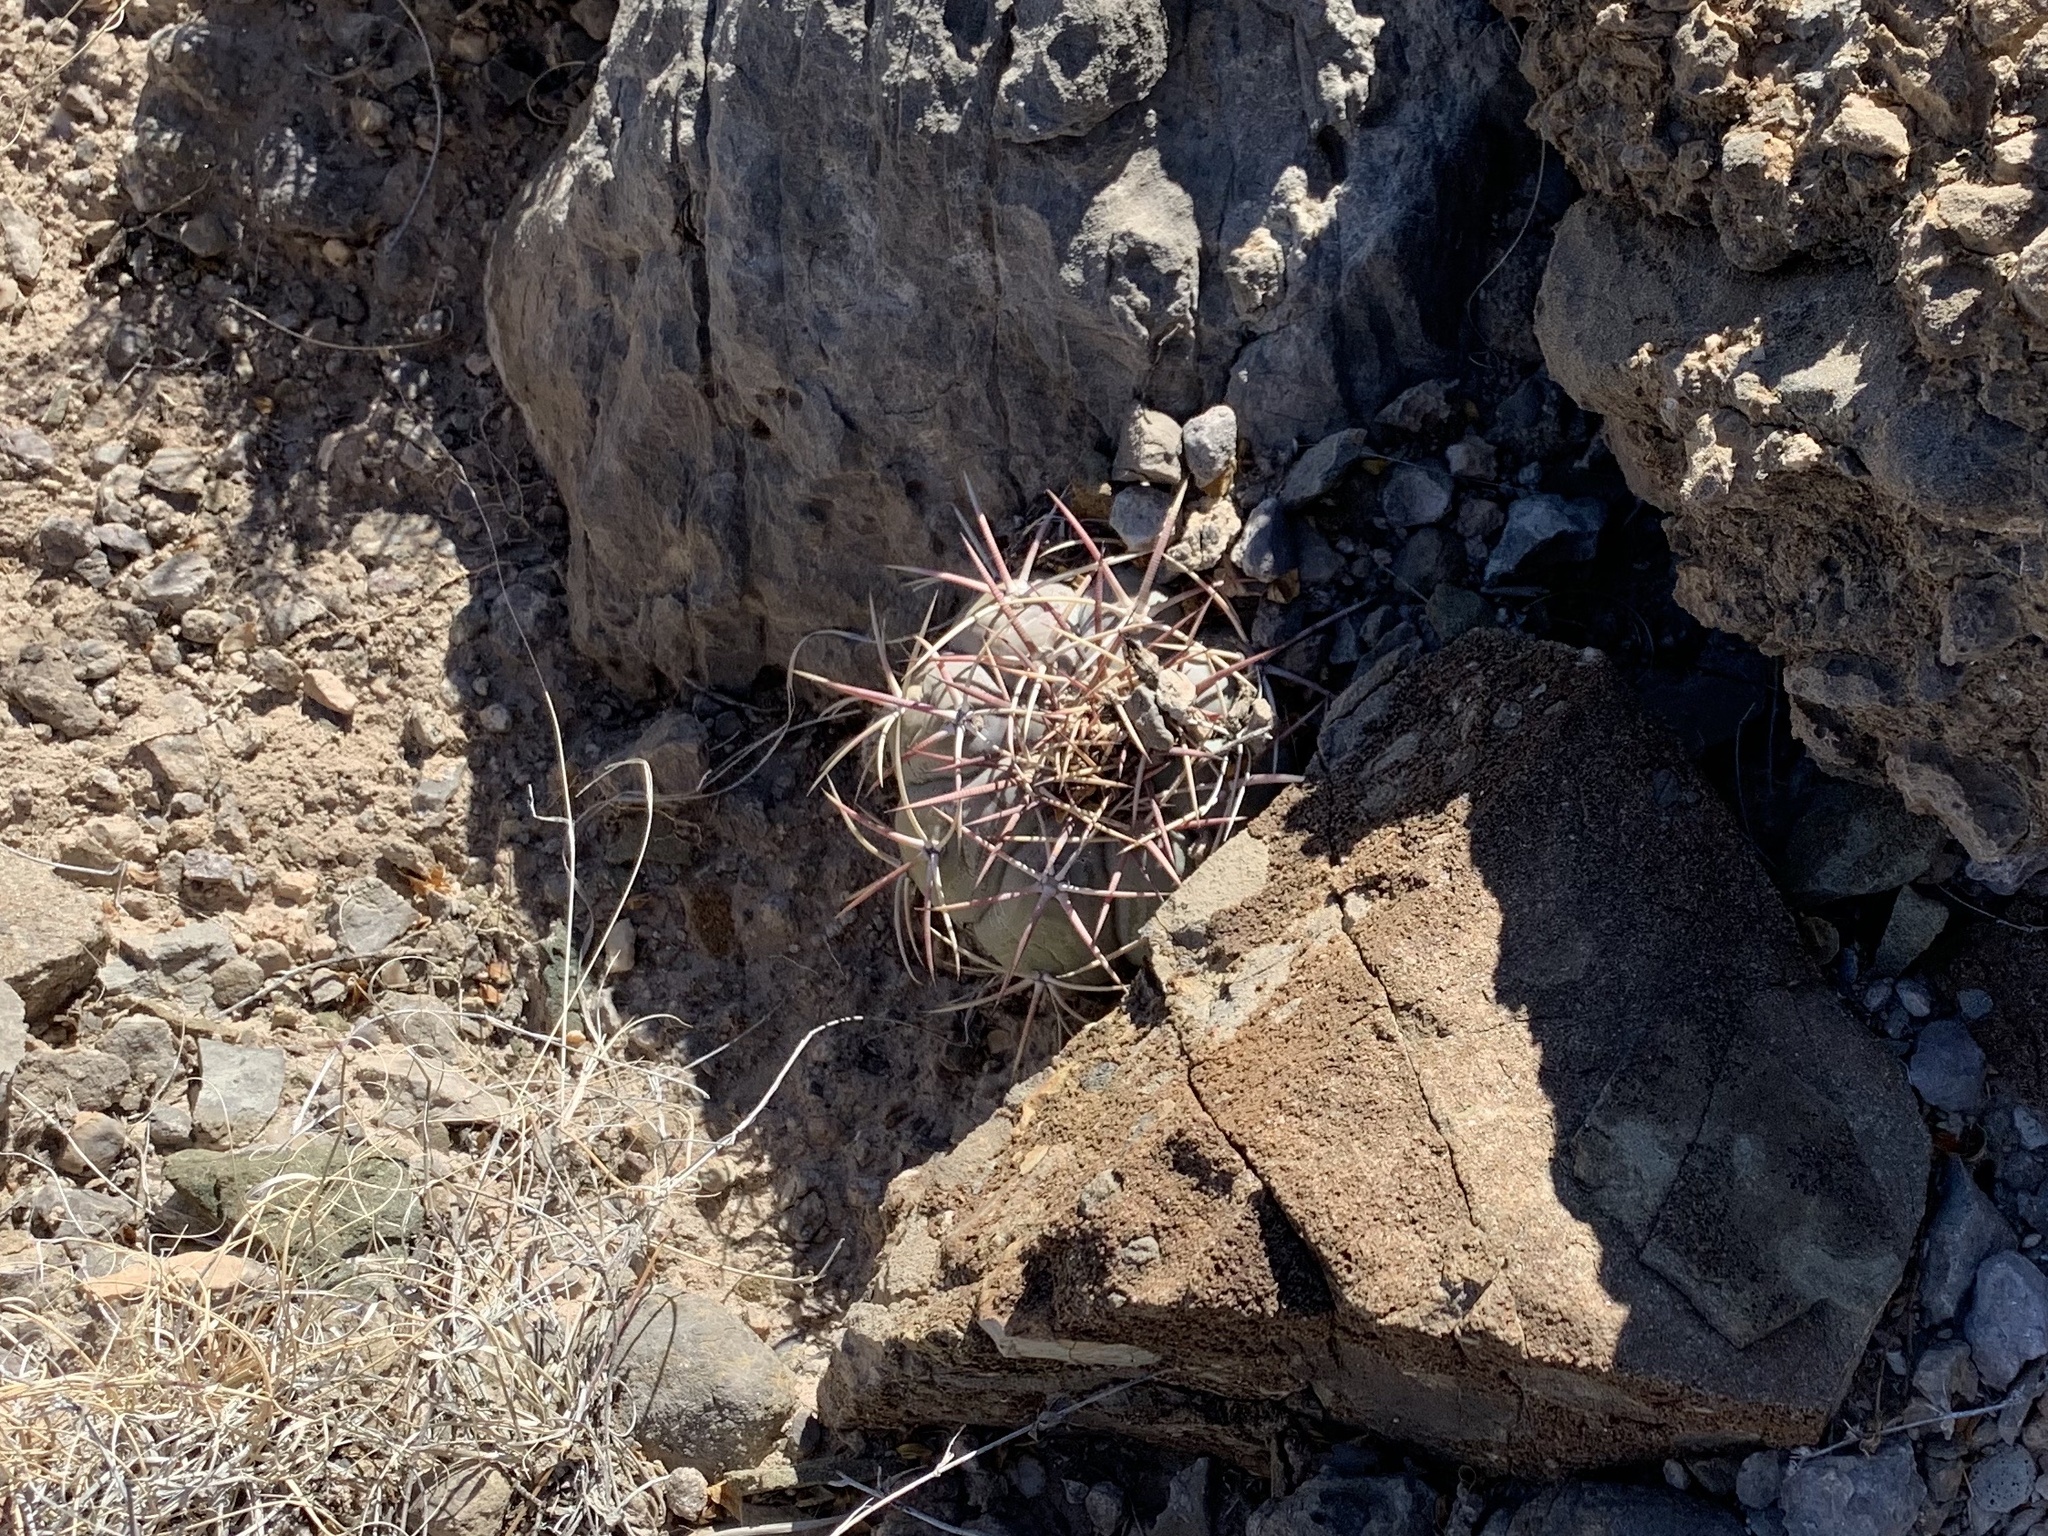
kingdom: Plantae
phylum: Tracheophyta
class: Magnoliopsida
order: Caryophyllales
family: Cactaceae
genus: Echinocactus
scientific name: Echinocactus horizonthalonius
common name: Devilshead
